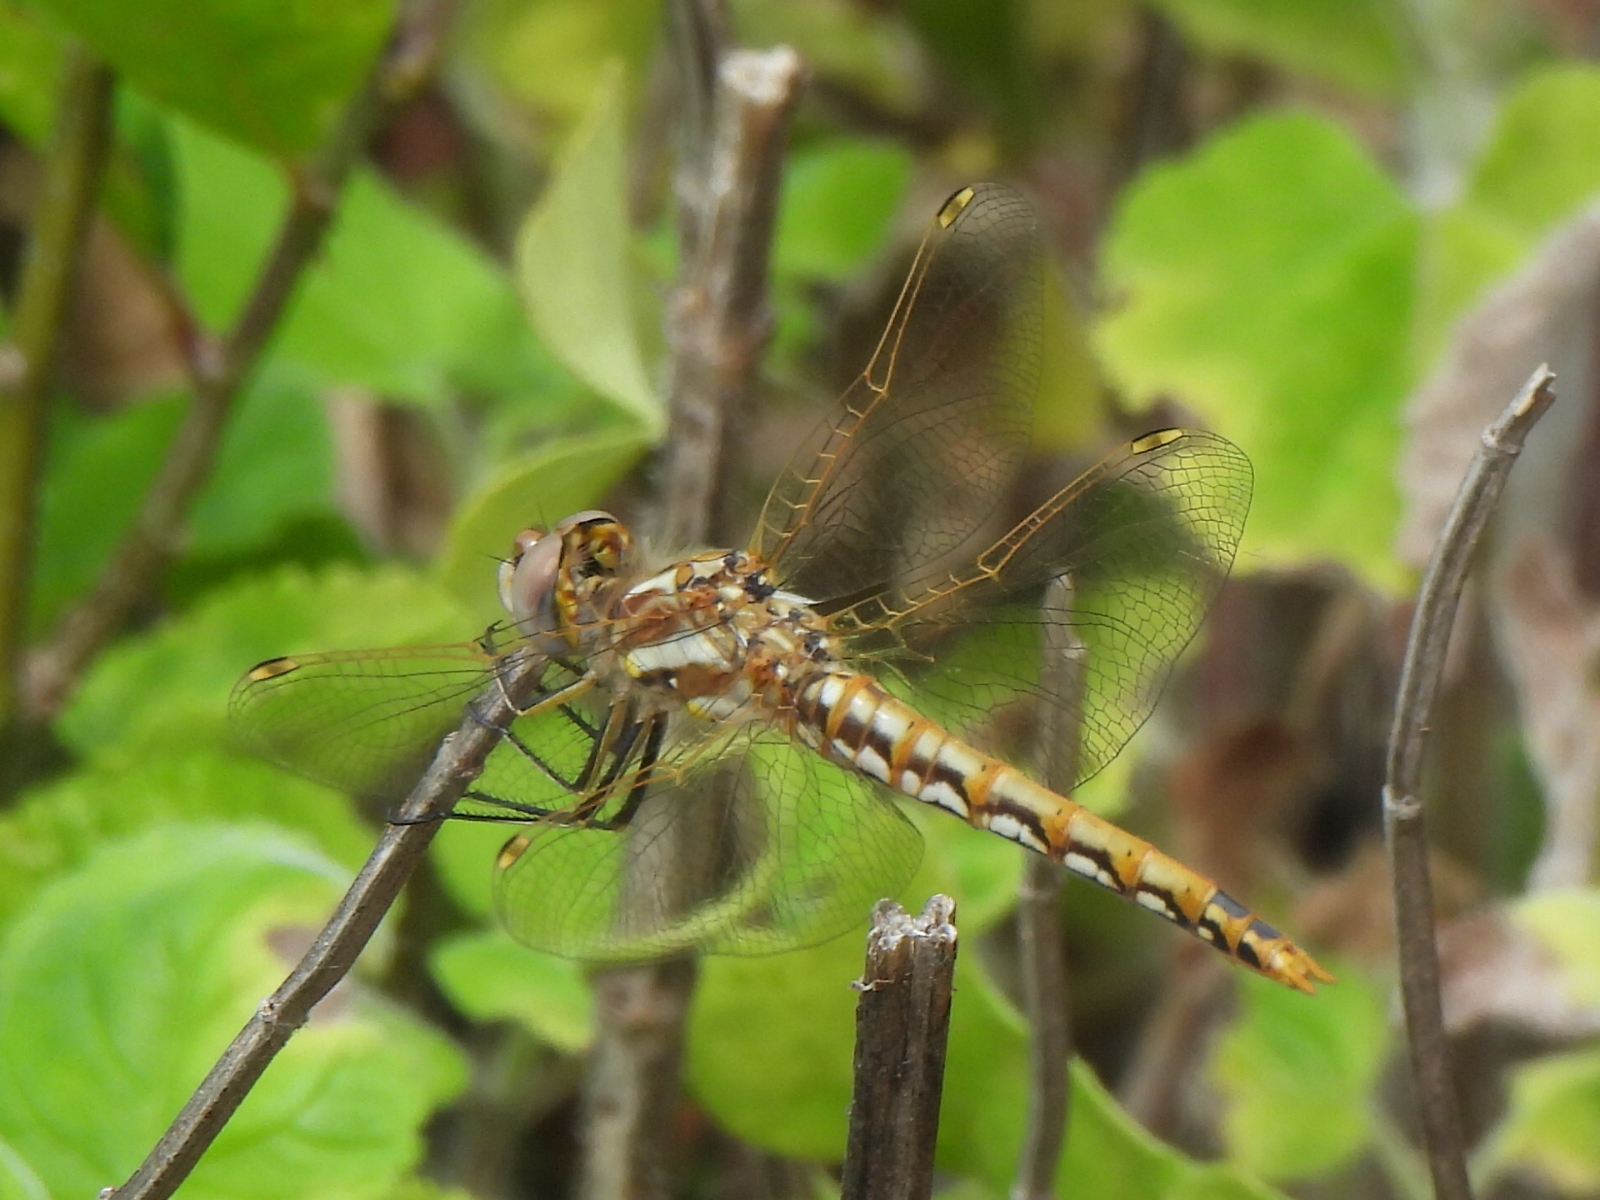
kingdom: Animalia
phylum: Arthropoda
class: Insecta
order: Odonata
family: Libellulidae
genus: Sympetrum
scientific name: Sympetrum corruptum
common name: Variegated meadowhawk
